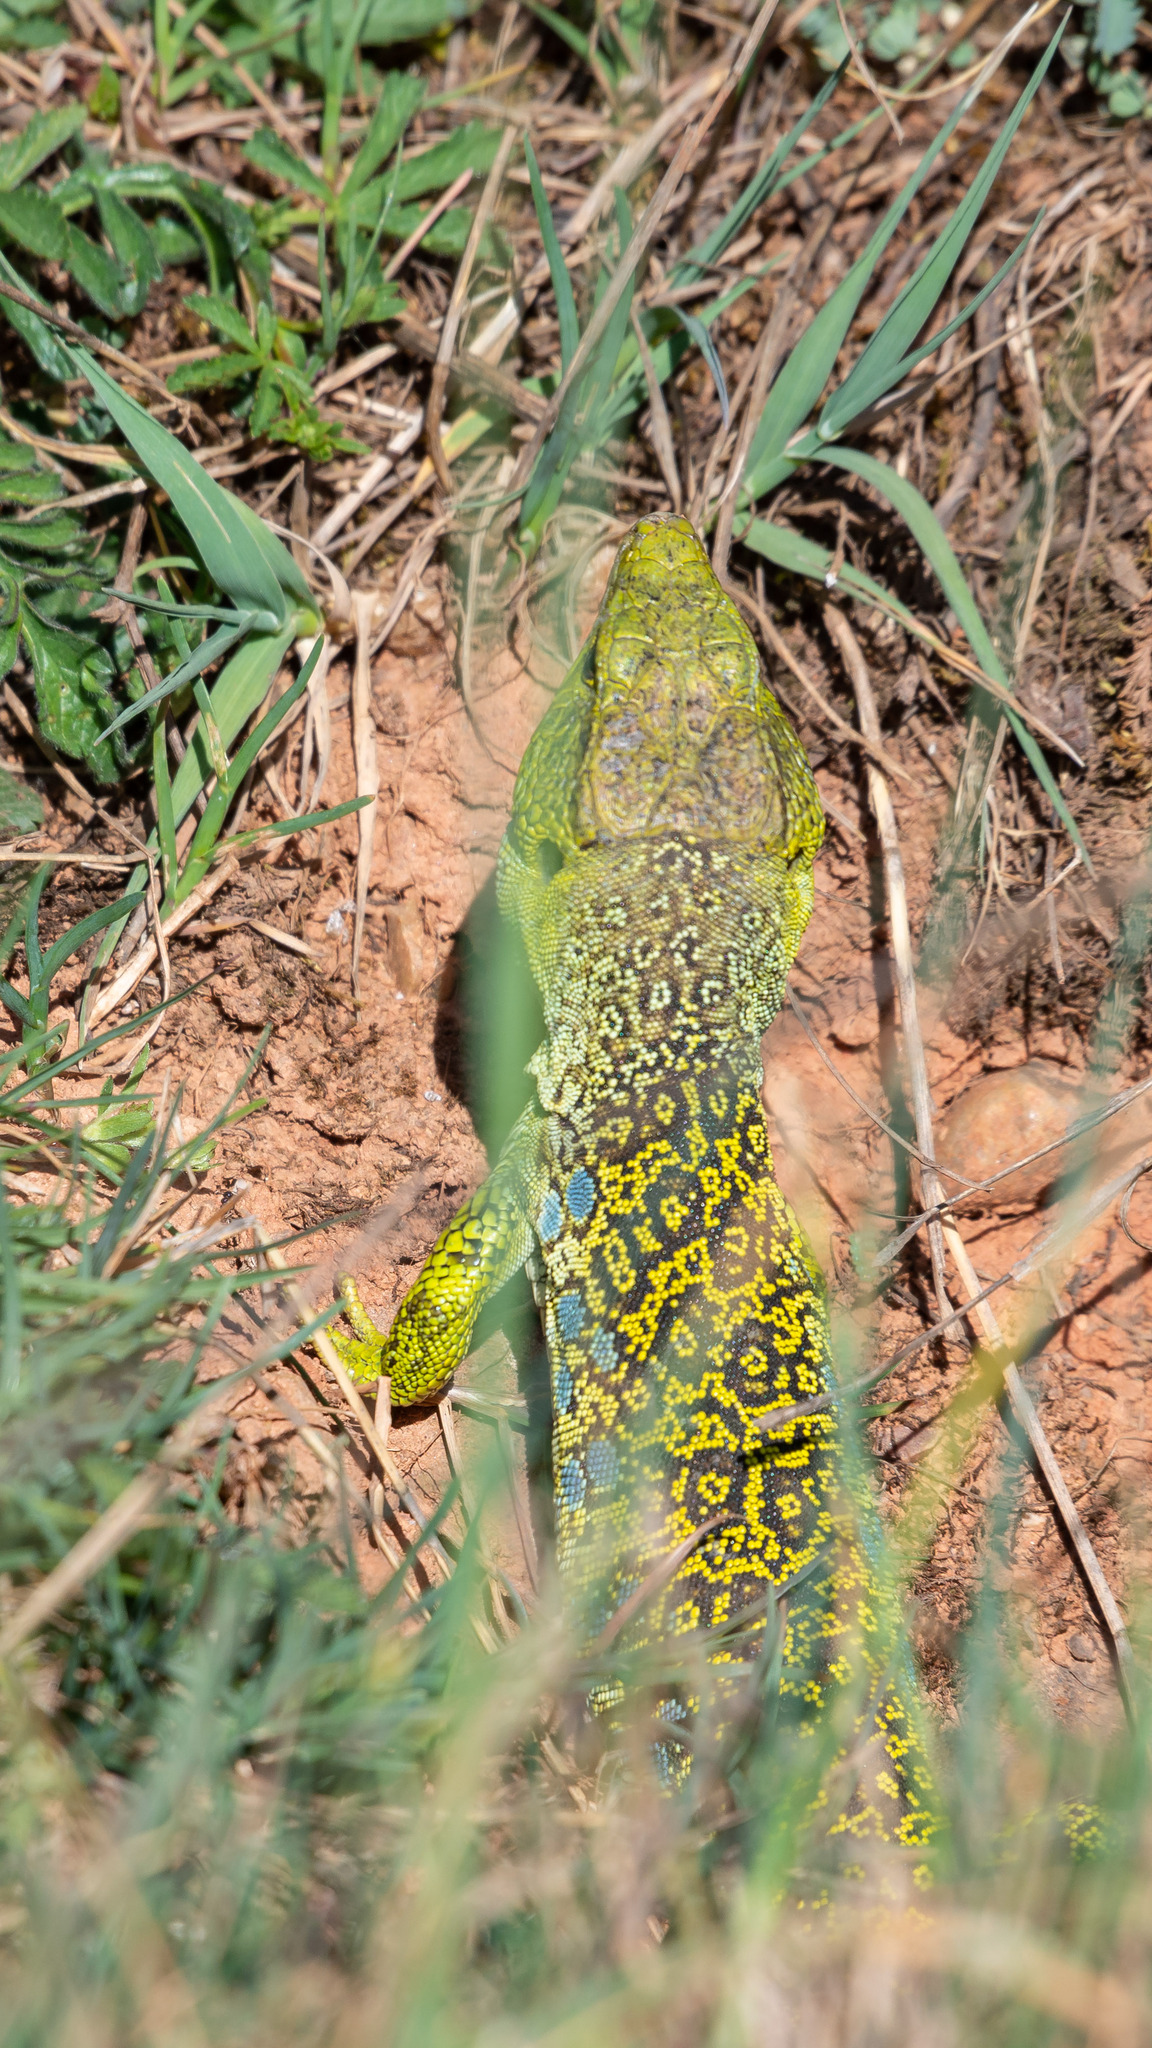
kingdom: Animalia
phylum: Chordata
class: Squamata
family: Lacertidae
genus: Timon
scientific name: Timon lepidus
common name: Ocellated lizard
